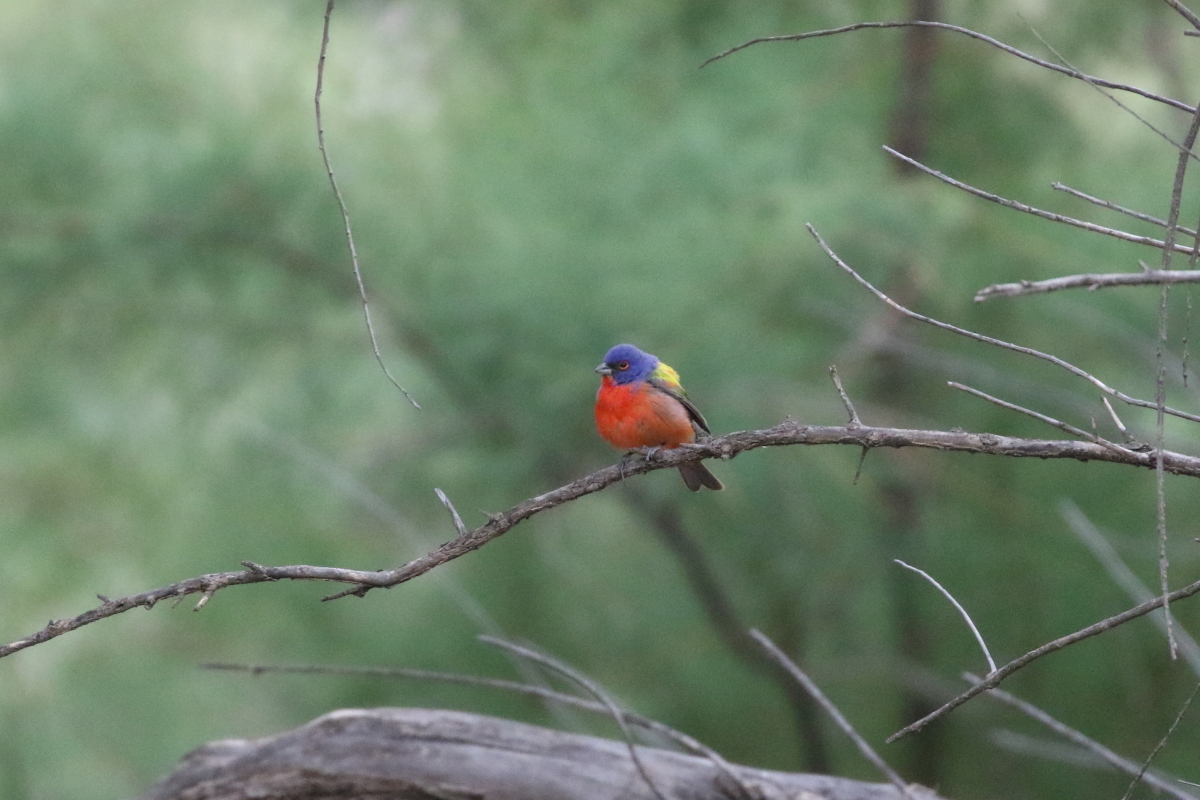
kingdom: Animalia
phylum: Chordata
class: Aves
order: Passeriformes
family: Cardinalidae
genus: Passerina
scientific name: Passerina ciris
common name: Painted bunting
